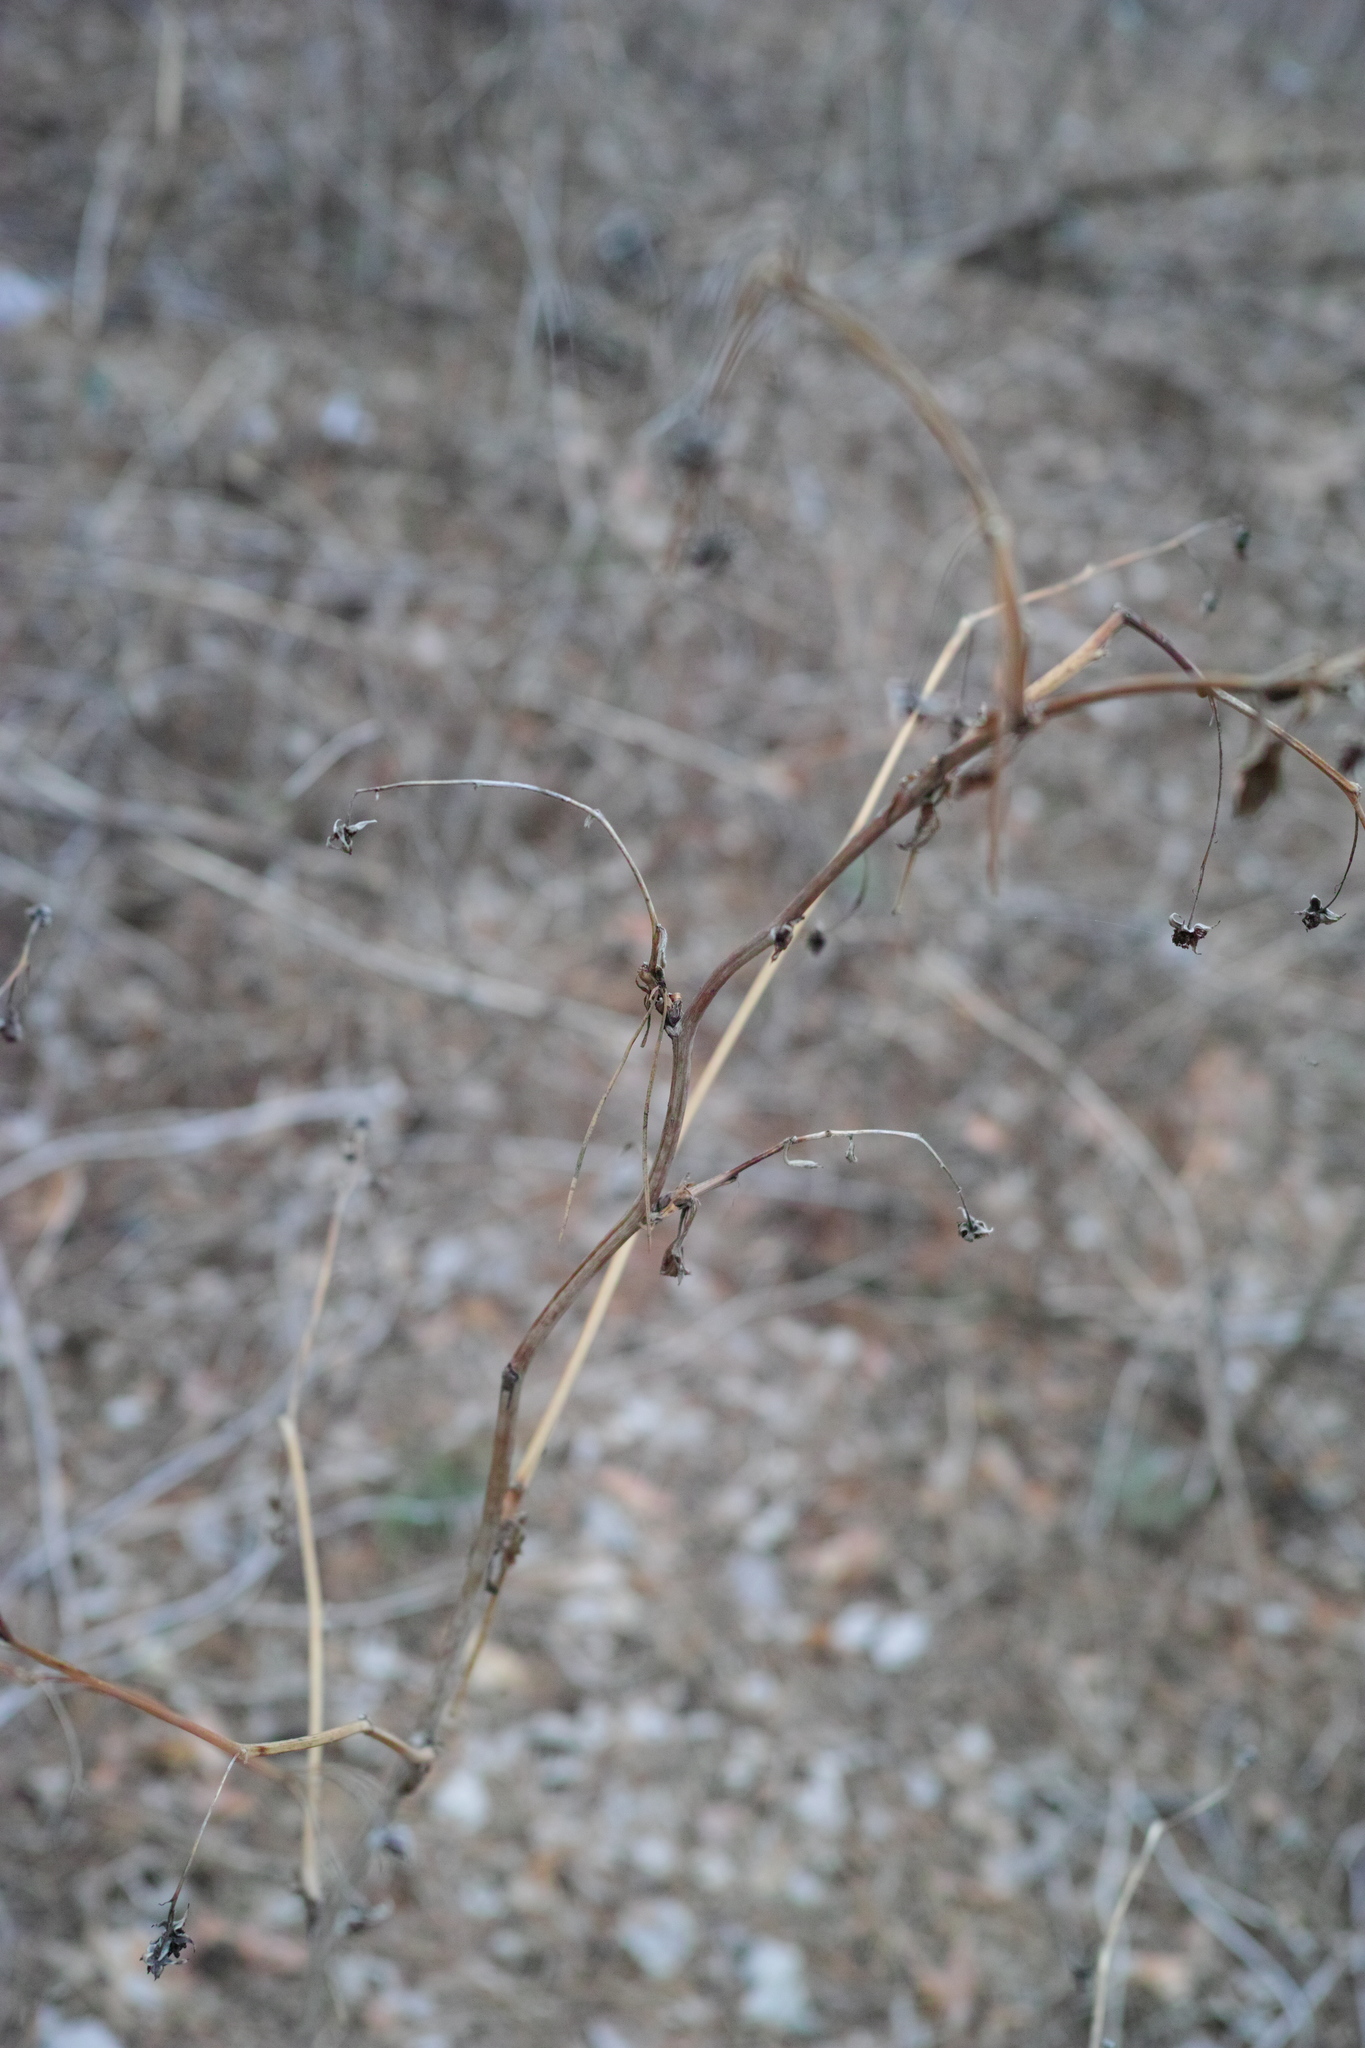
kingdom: Plantae
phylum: Tracheophyta
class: Magnoliopsida
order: Rosales
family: Rosaceae
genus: Rubus
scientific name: Rubus idaeus
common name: Raspberry
